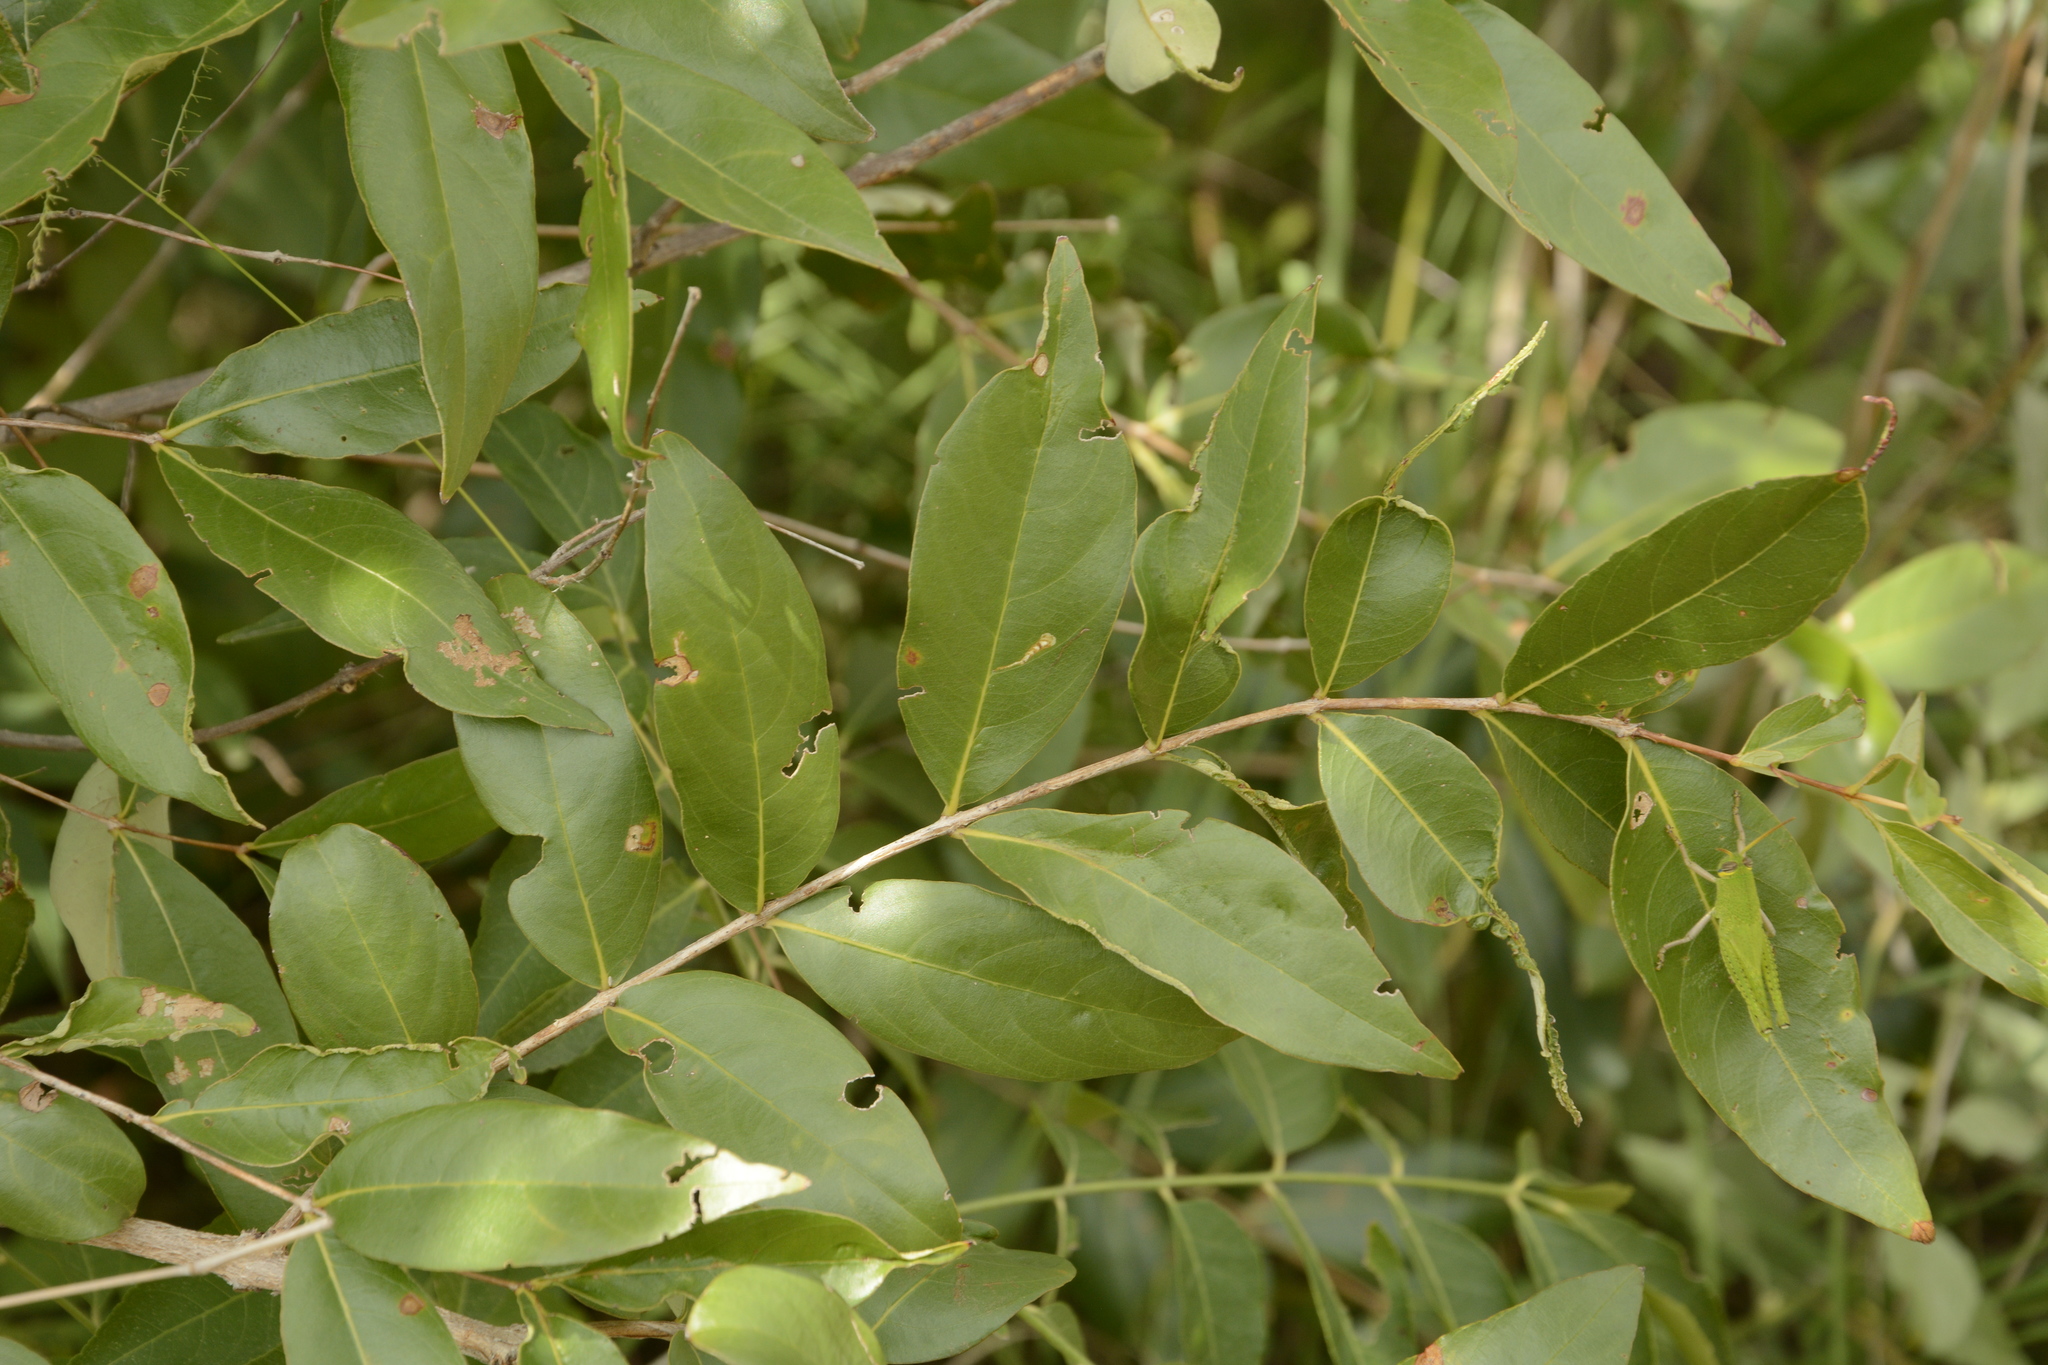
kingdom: Plantae
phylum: Tracheophyta
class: Magnoliopsida
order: Myrtales
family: Lythraceae
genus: Lagerstroemia
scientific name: Lagerstroemia parviflora
